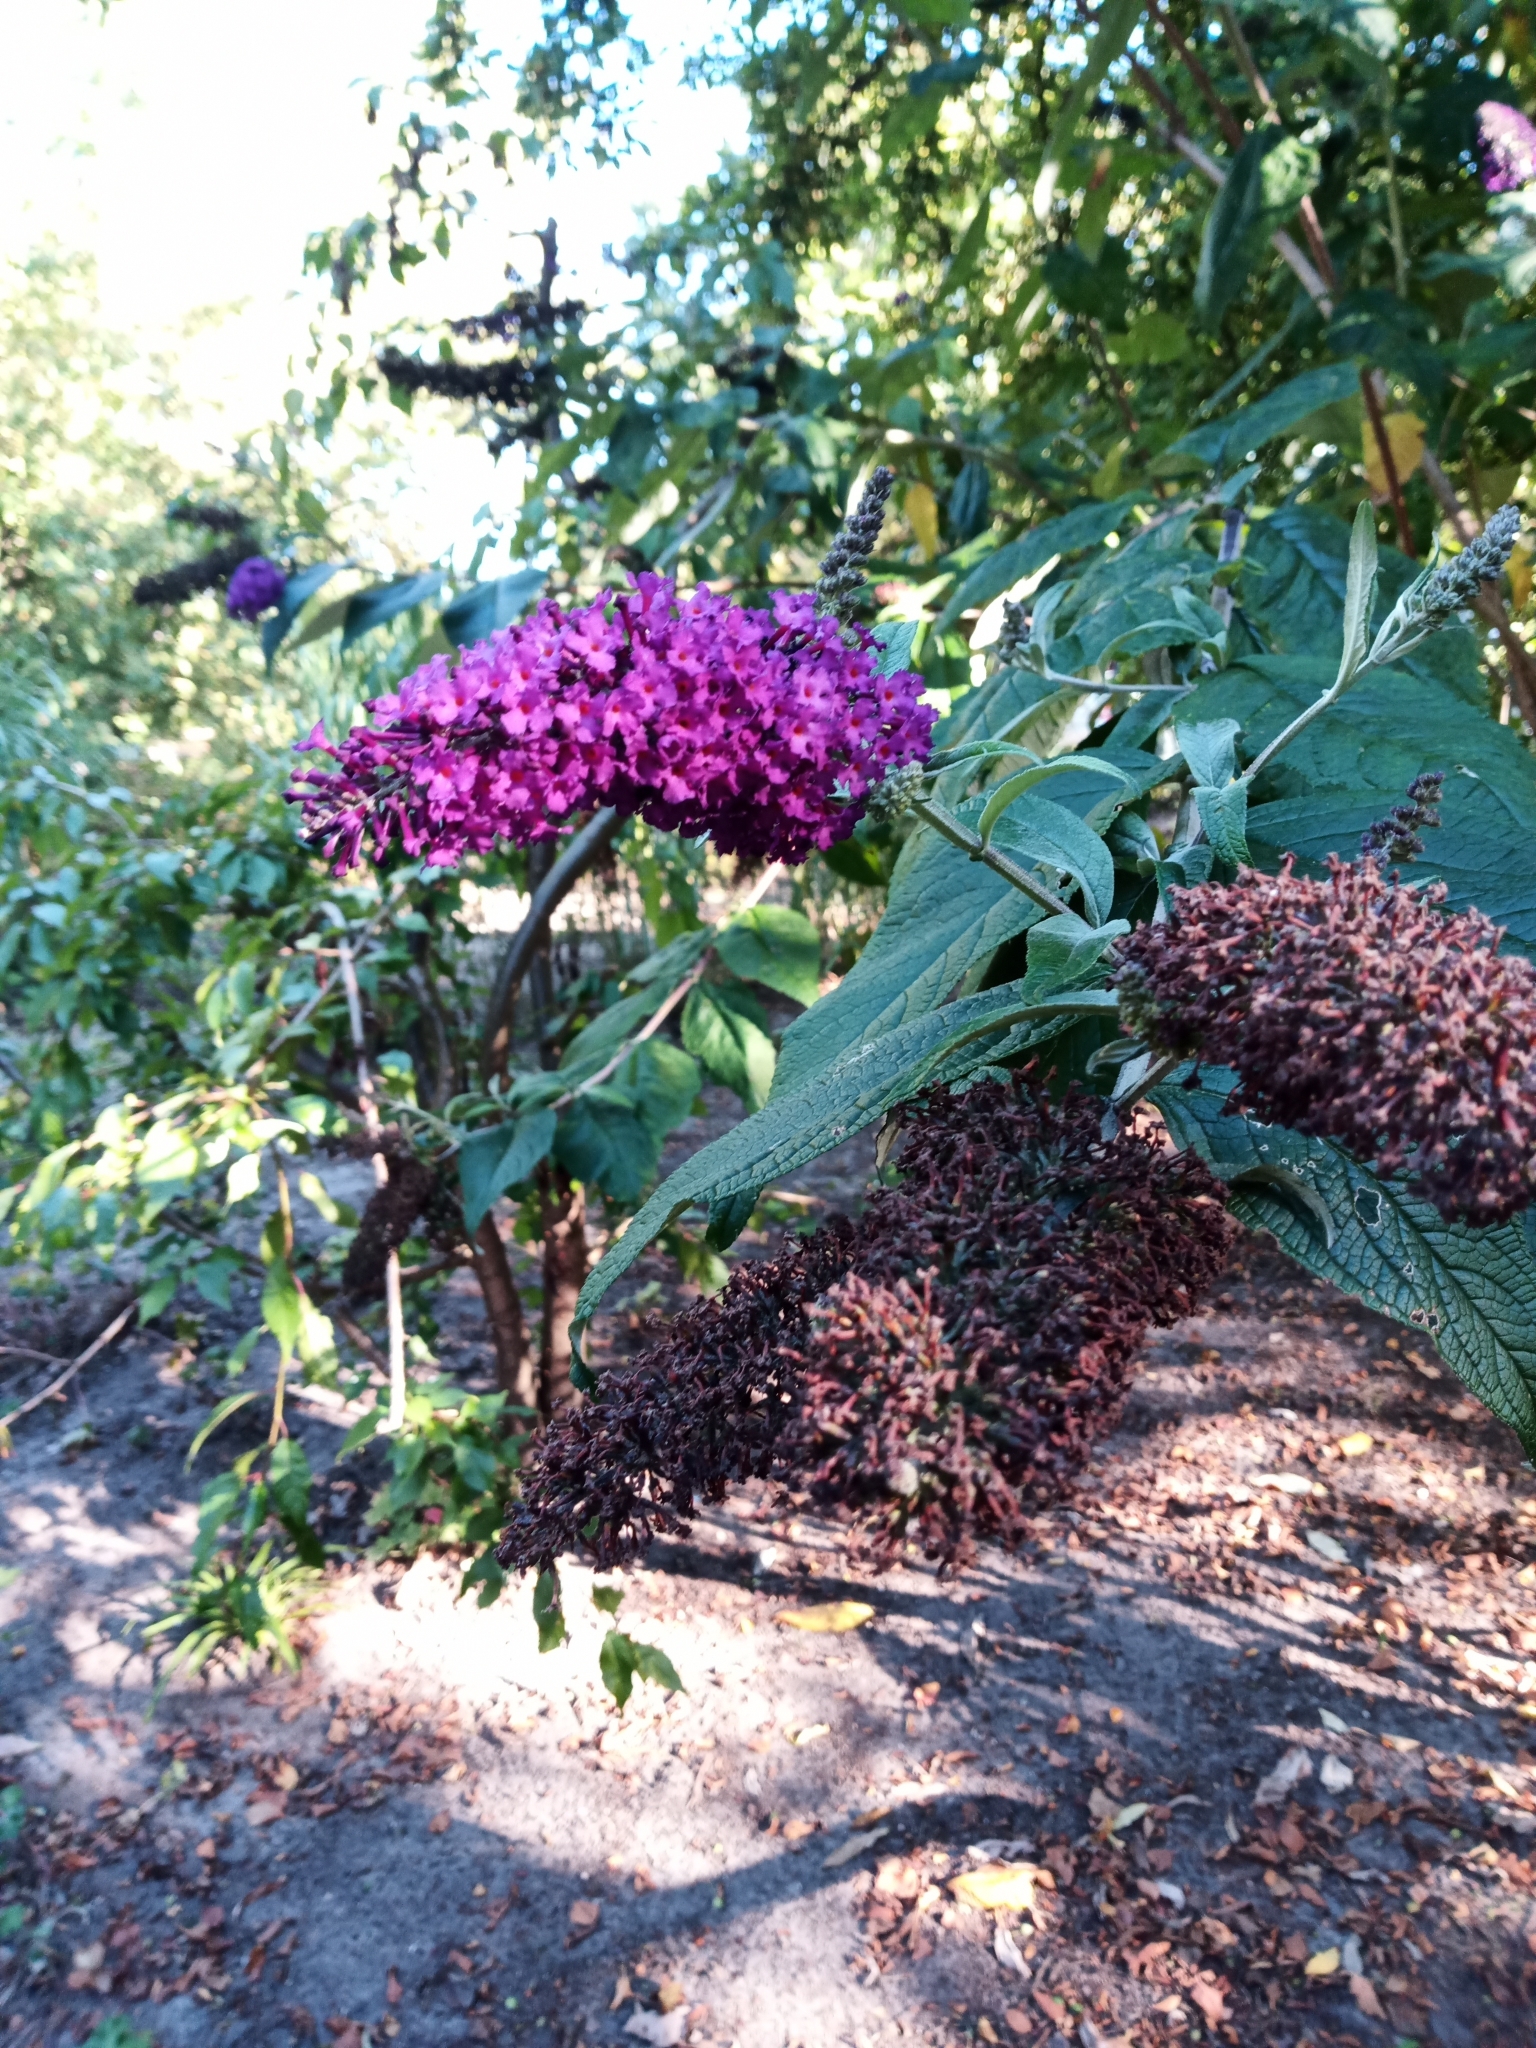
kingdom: Plantae
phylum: Tracheophyta
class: Magnoliopsida
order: Lamiales
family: Scrophulariaceae
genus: Buddleja
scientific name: Buddleja davidii
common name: Butterfly-bush
